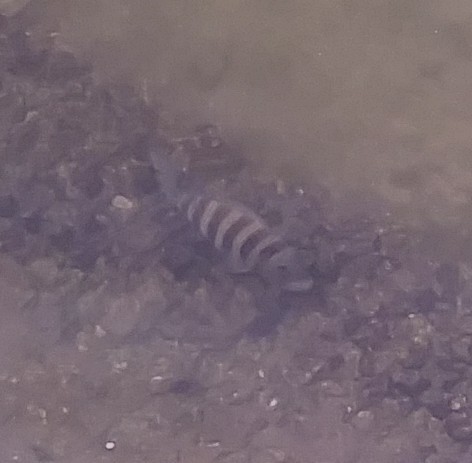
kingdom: Animalia
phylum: Chordata
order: Perciformes
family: Sparidae
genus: Archosargus
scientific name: Archosargus probatocephalus
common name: Sheepshead
